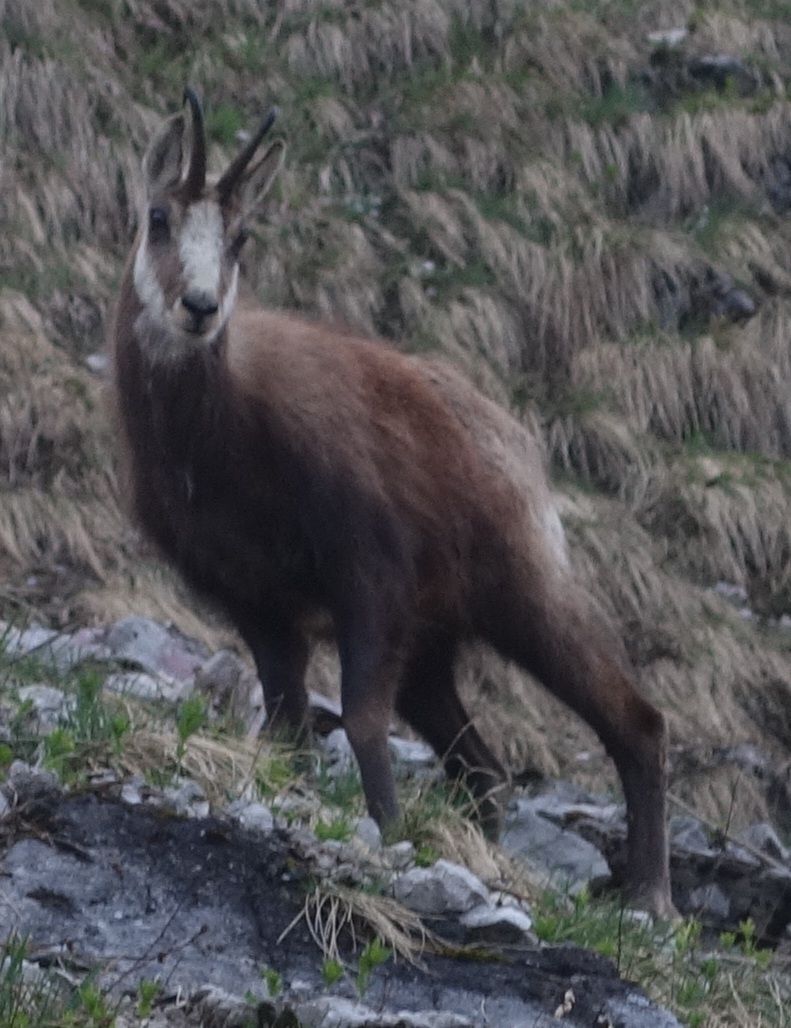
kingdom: Animalia
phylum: Chordata
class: Mammalia
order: Artiodactyla
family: Bovidae
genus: Rupicapra
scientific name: Rupicapra rupicapra
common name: Chamois
